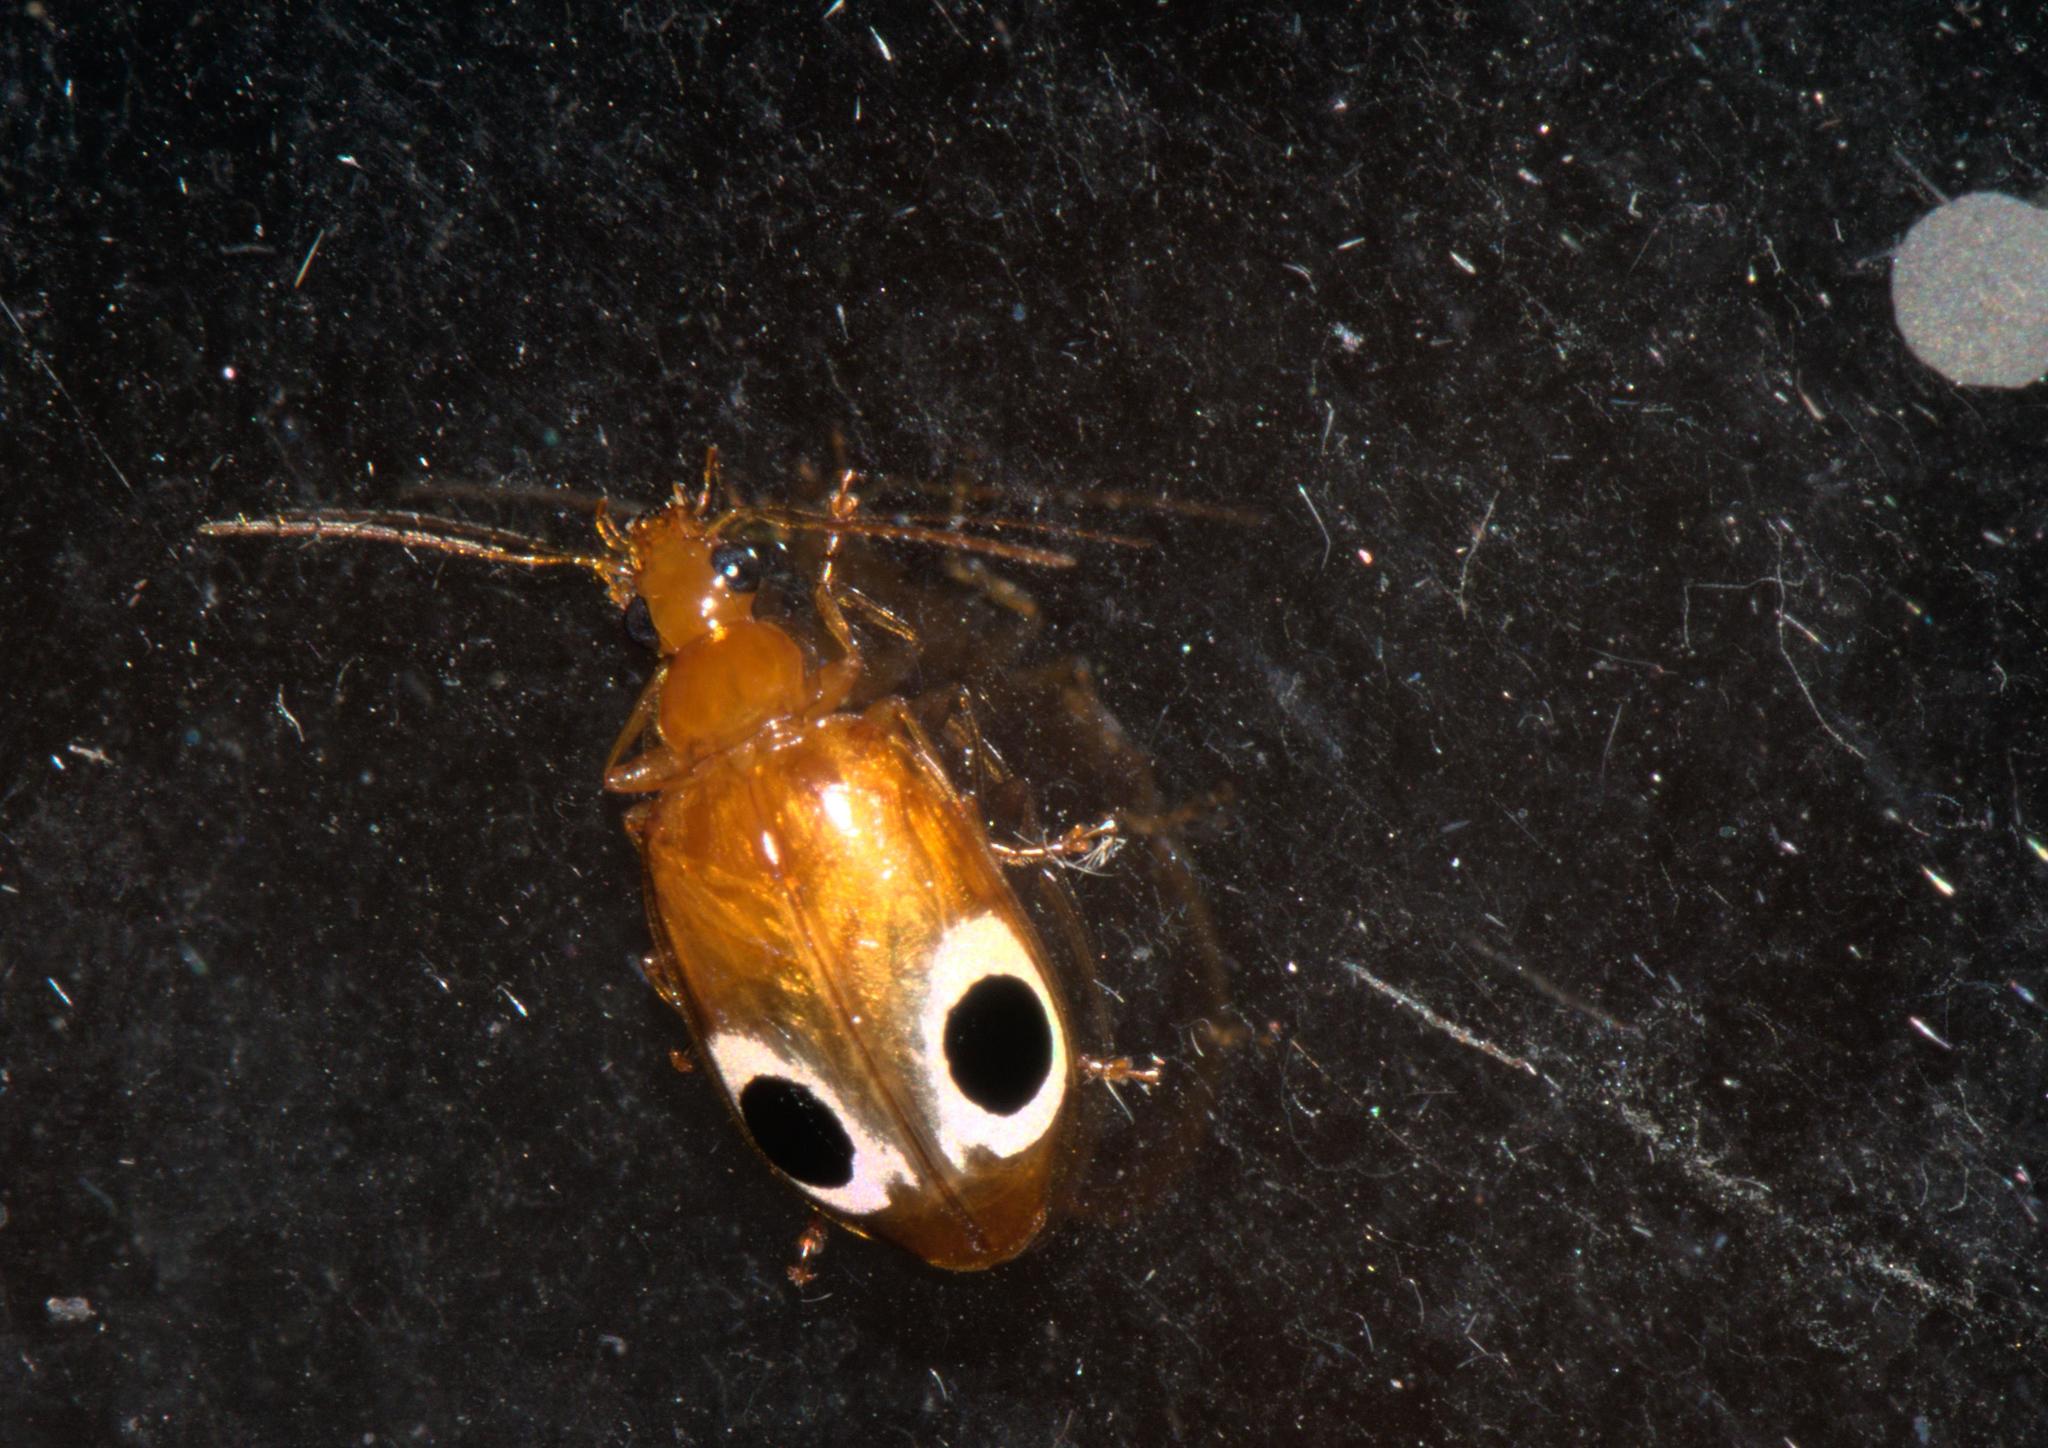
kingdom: Animalia
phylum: Arthropoda
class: Insecta
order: Coleoptera
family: Carabidae
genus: Lebidia
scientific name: Lebidia bioculata
